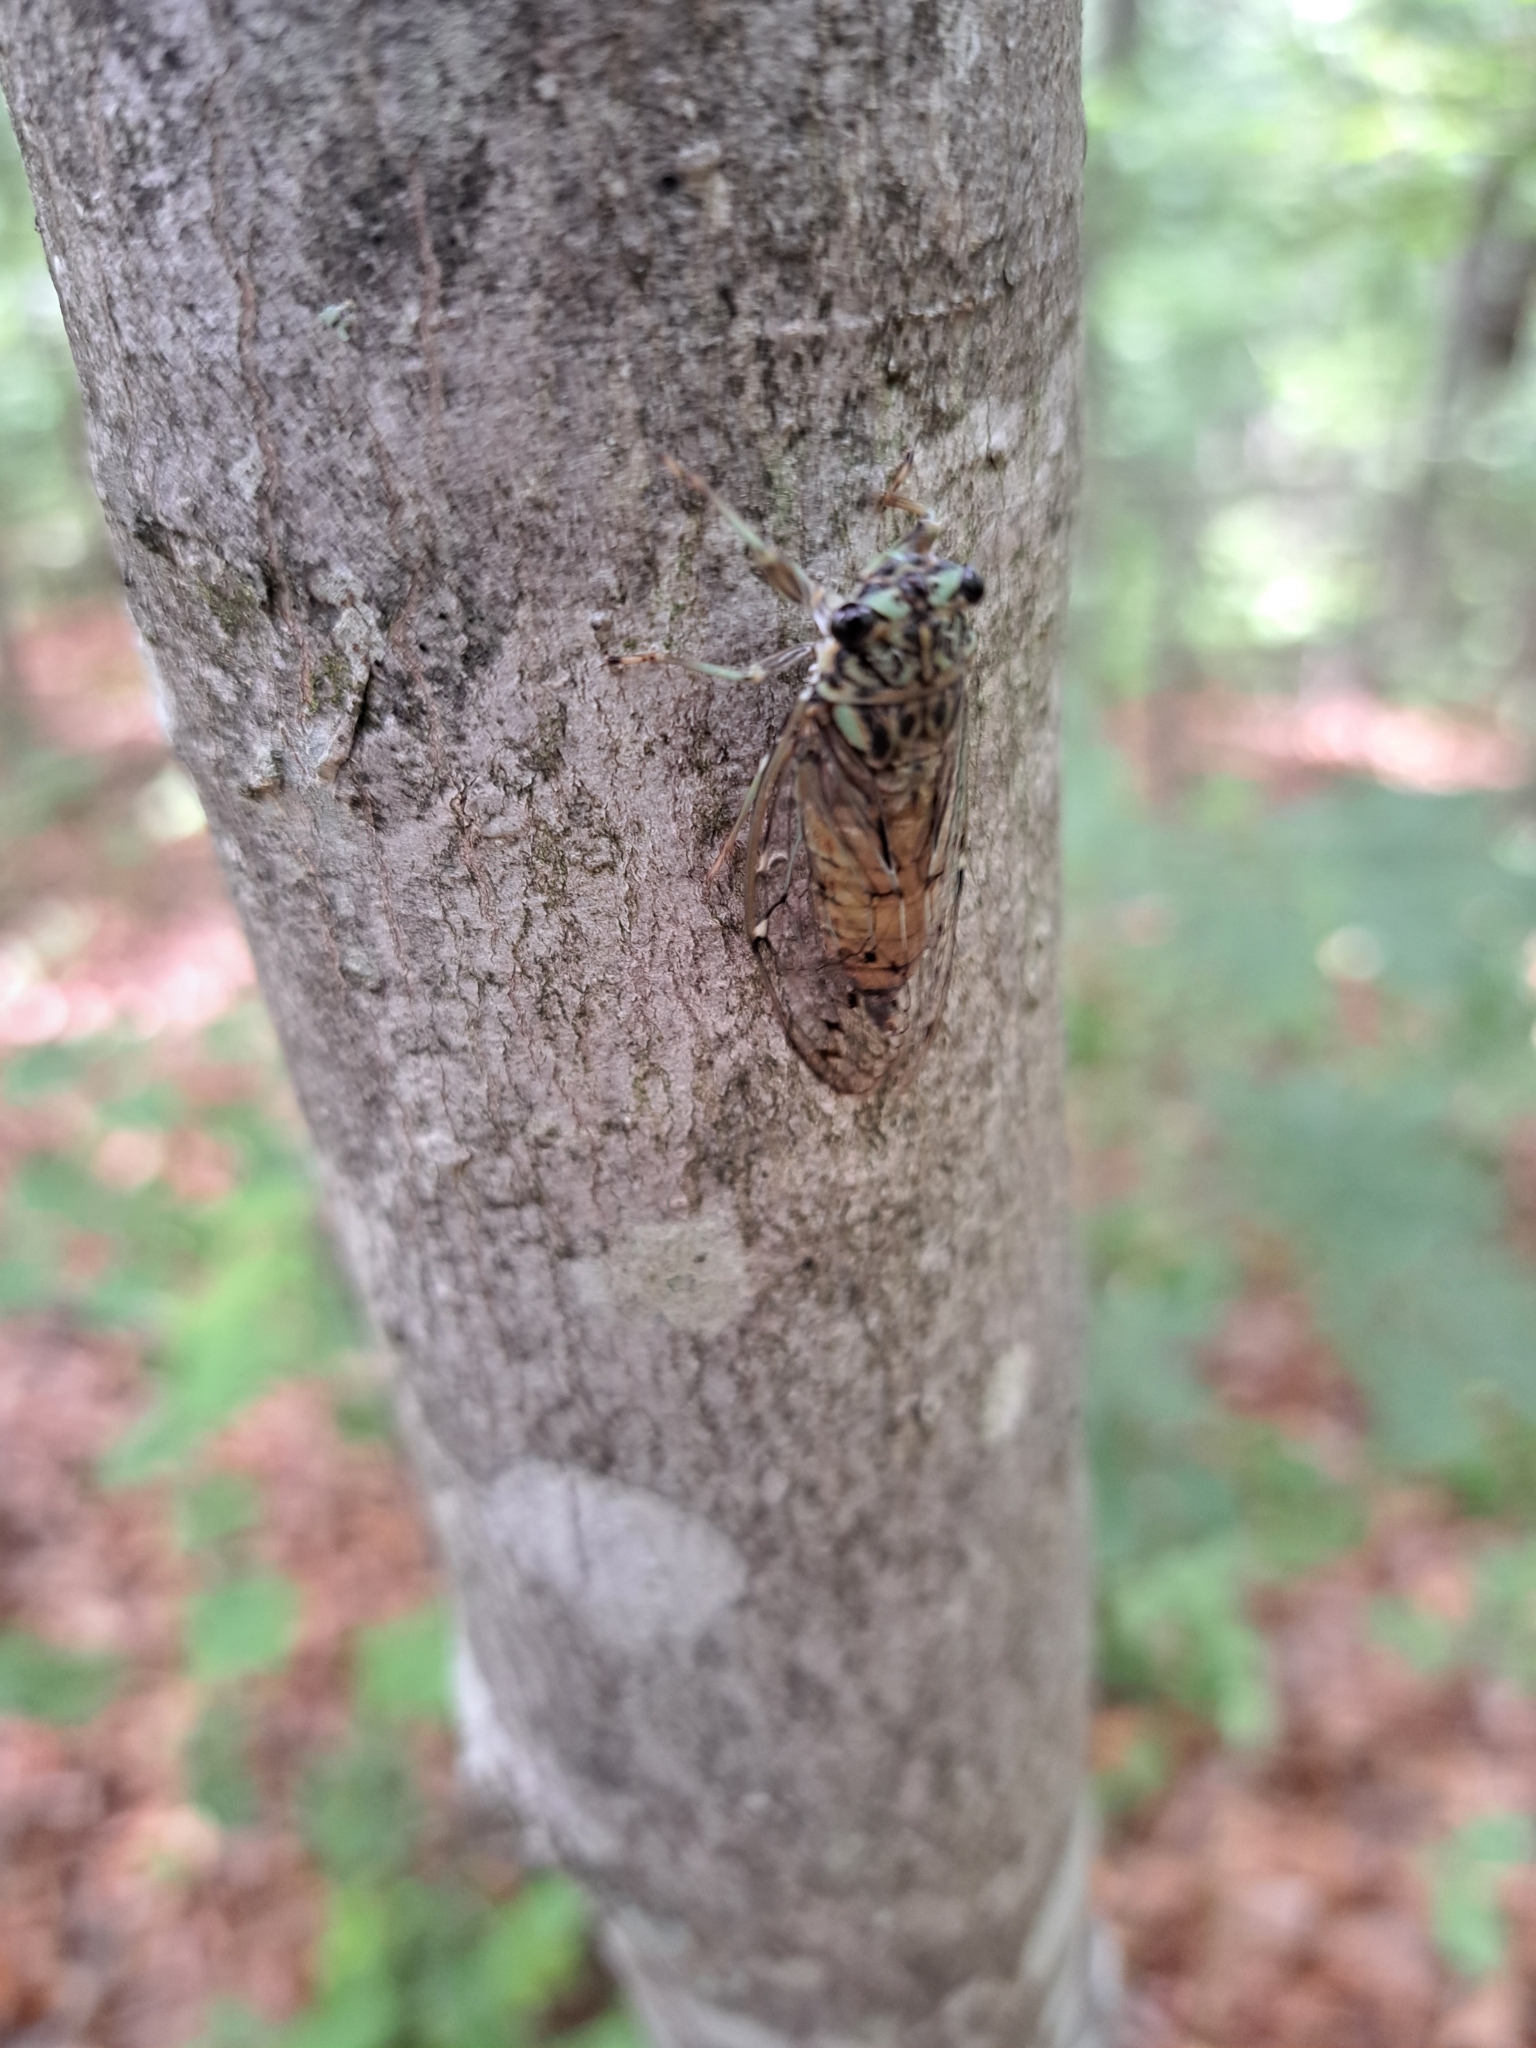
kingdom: Animalia
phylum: Arthropoda
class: Insecta
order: Hemiptera
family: Cicadidae
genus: Neocicada
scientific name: Neocicada hieroglyphica
